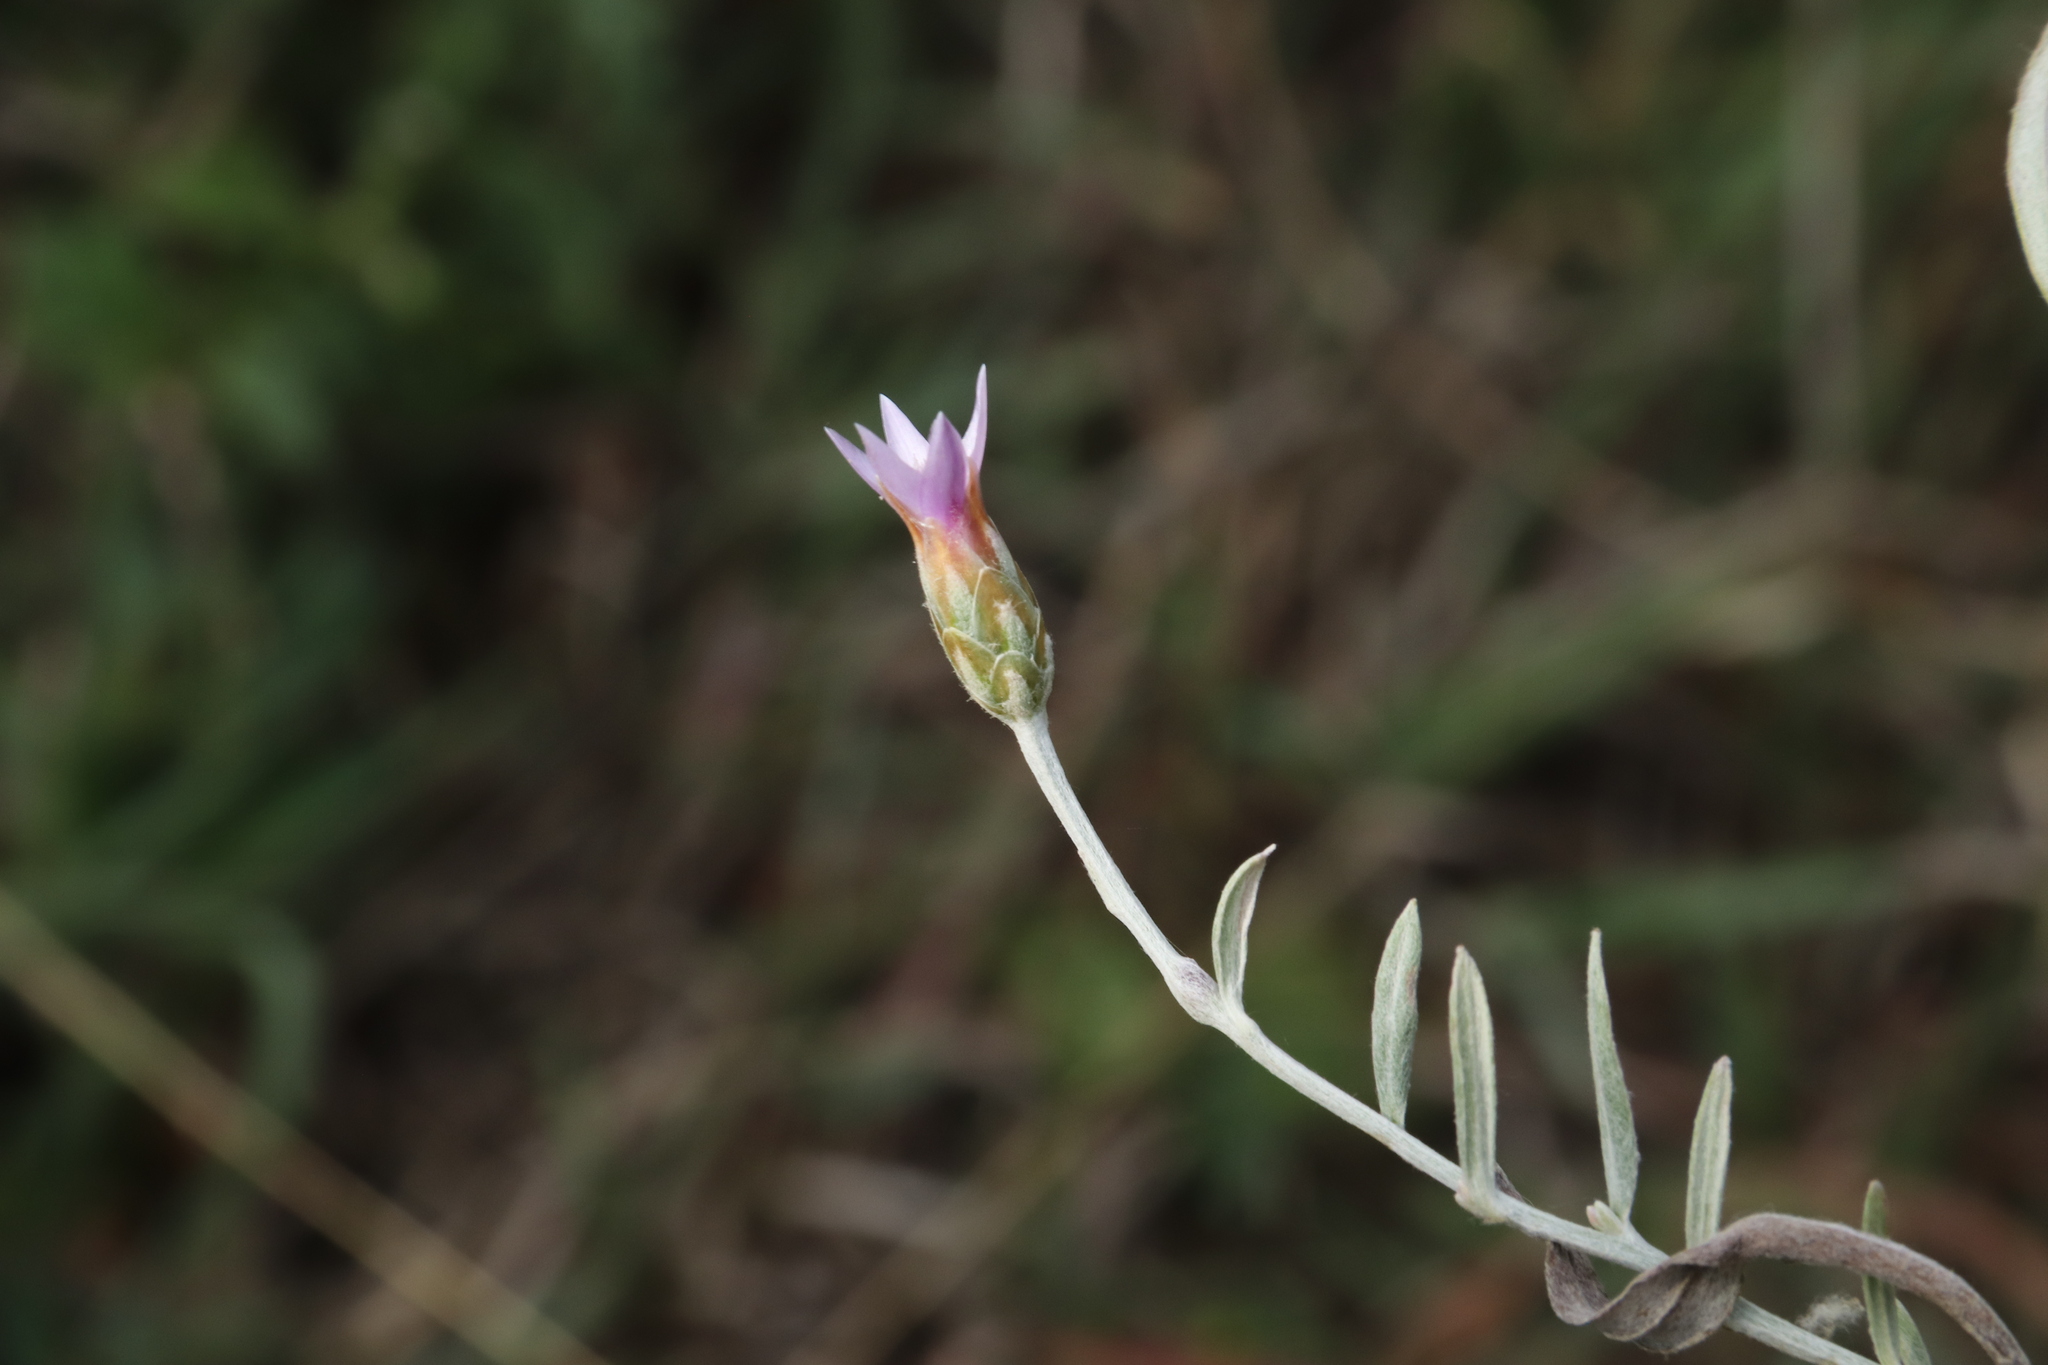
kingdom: Plantae
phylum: Tracheophyta
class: Magnoliopsida
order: Asterales
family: Asteraceae
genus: Xeranthemum
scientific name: Xeranthemum cylindraceum
